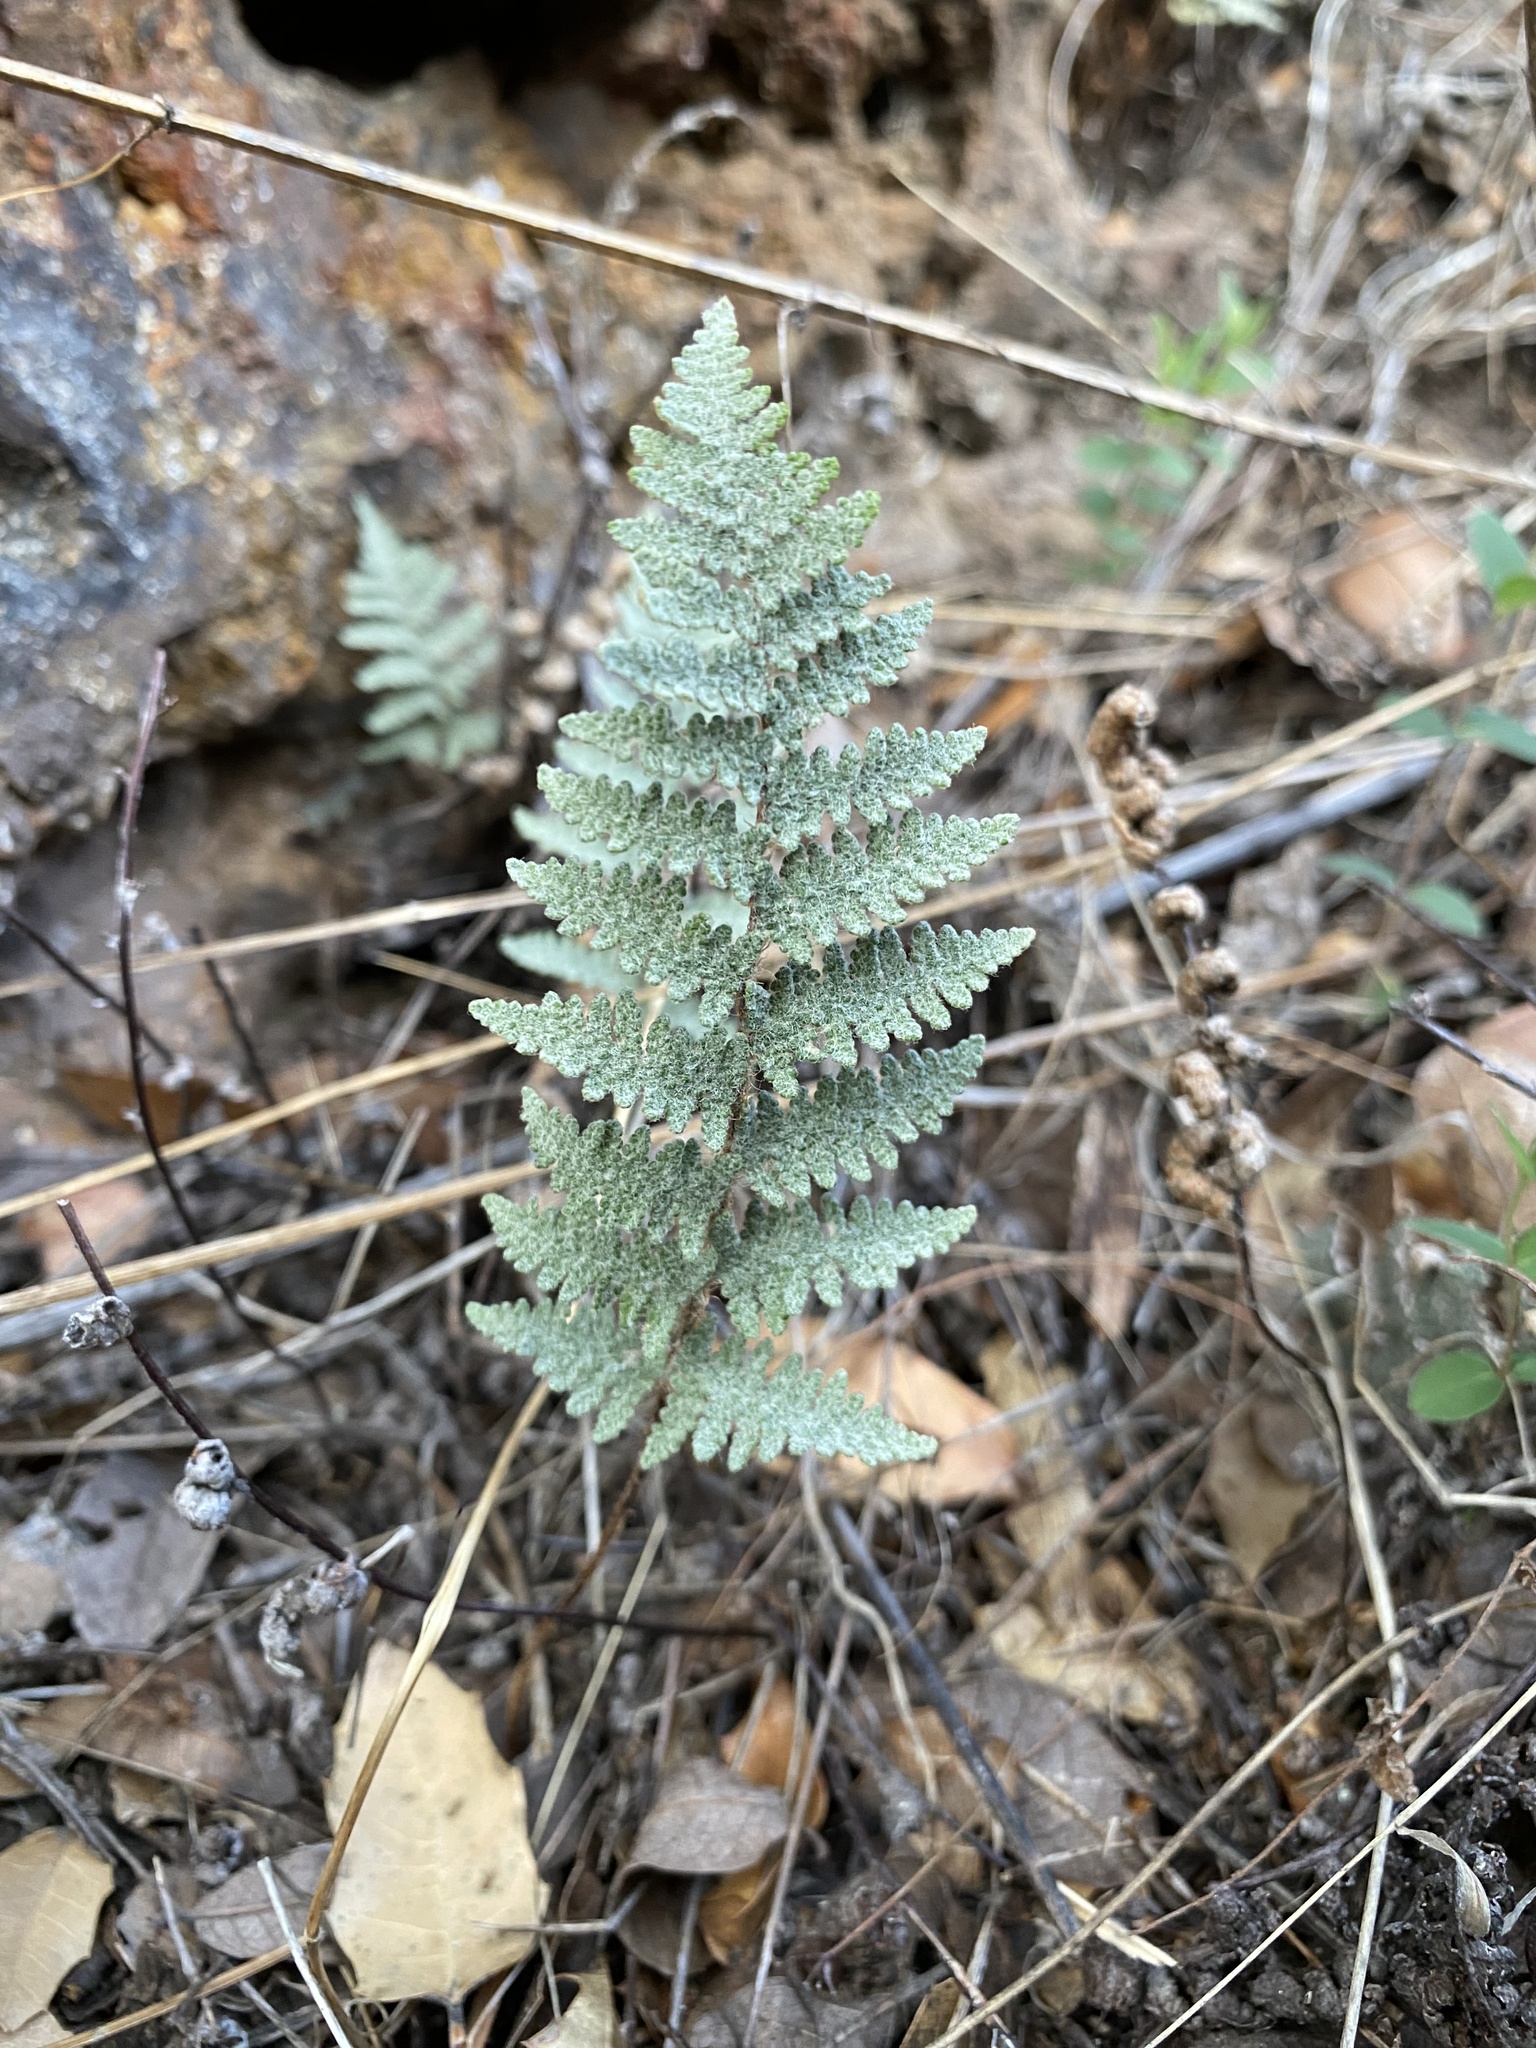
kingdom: Plantae
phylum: Tracheophyta
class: Polypodiopsida
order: Polypodiales
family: Pteridaceae
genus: Myriopteris
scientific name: Myriopteris lindheimeri
